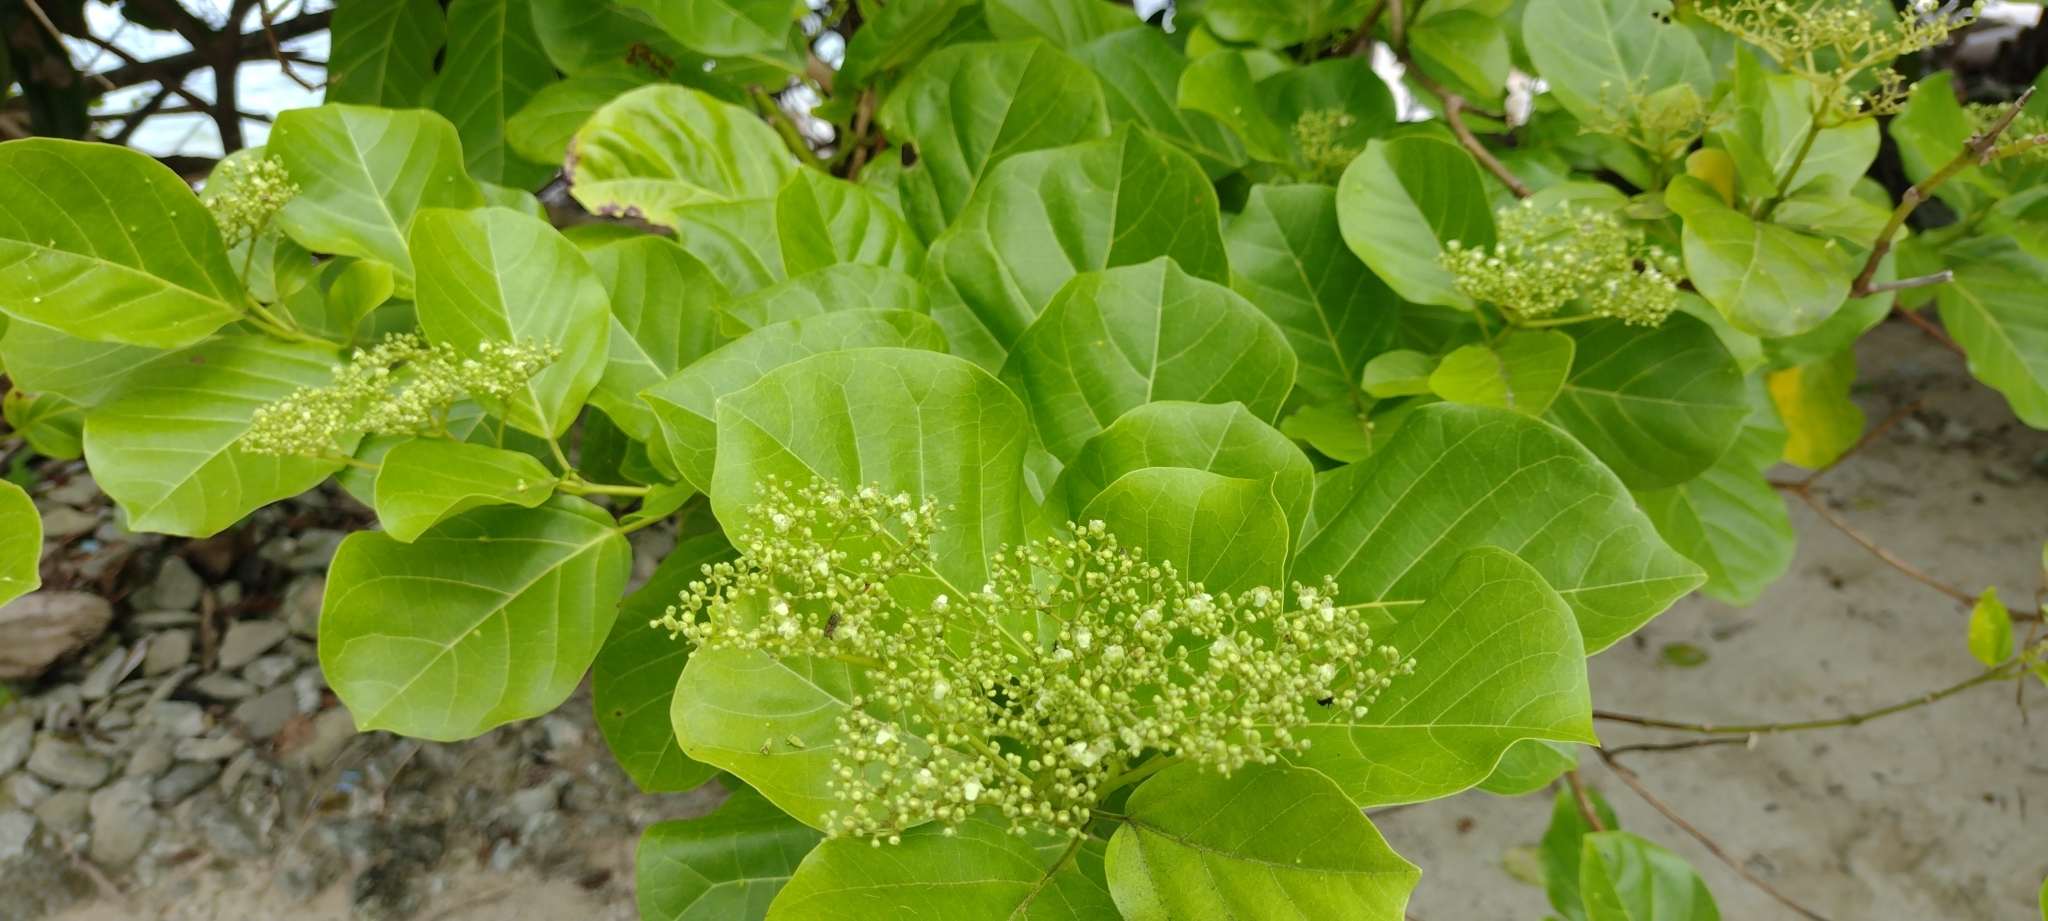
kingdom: Plantae
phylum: Tracheophyta
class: Magnoliopsida
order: Lamiales
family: Lamiaceae
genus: Premna
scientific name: Premna serratifolia
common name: Bastard guelder
